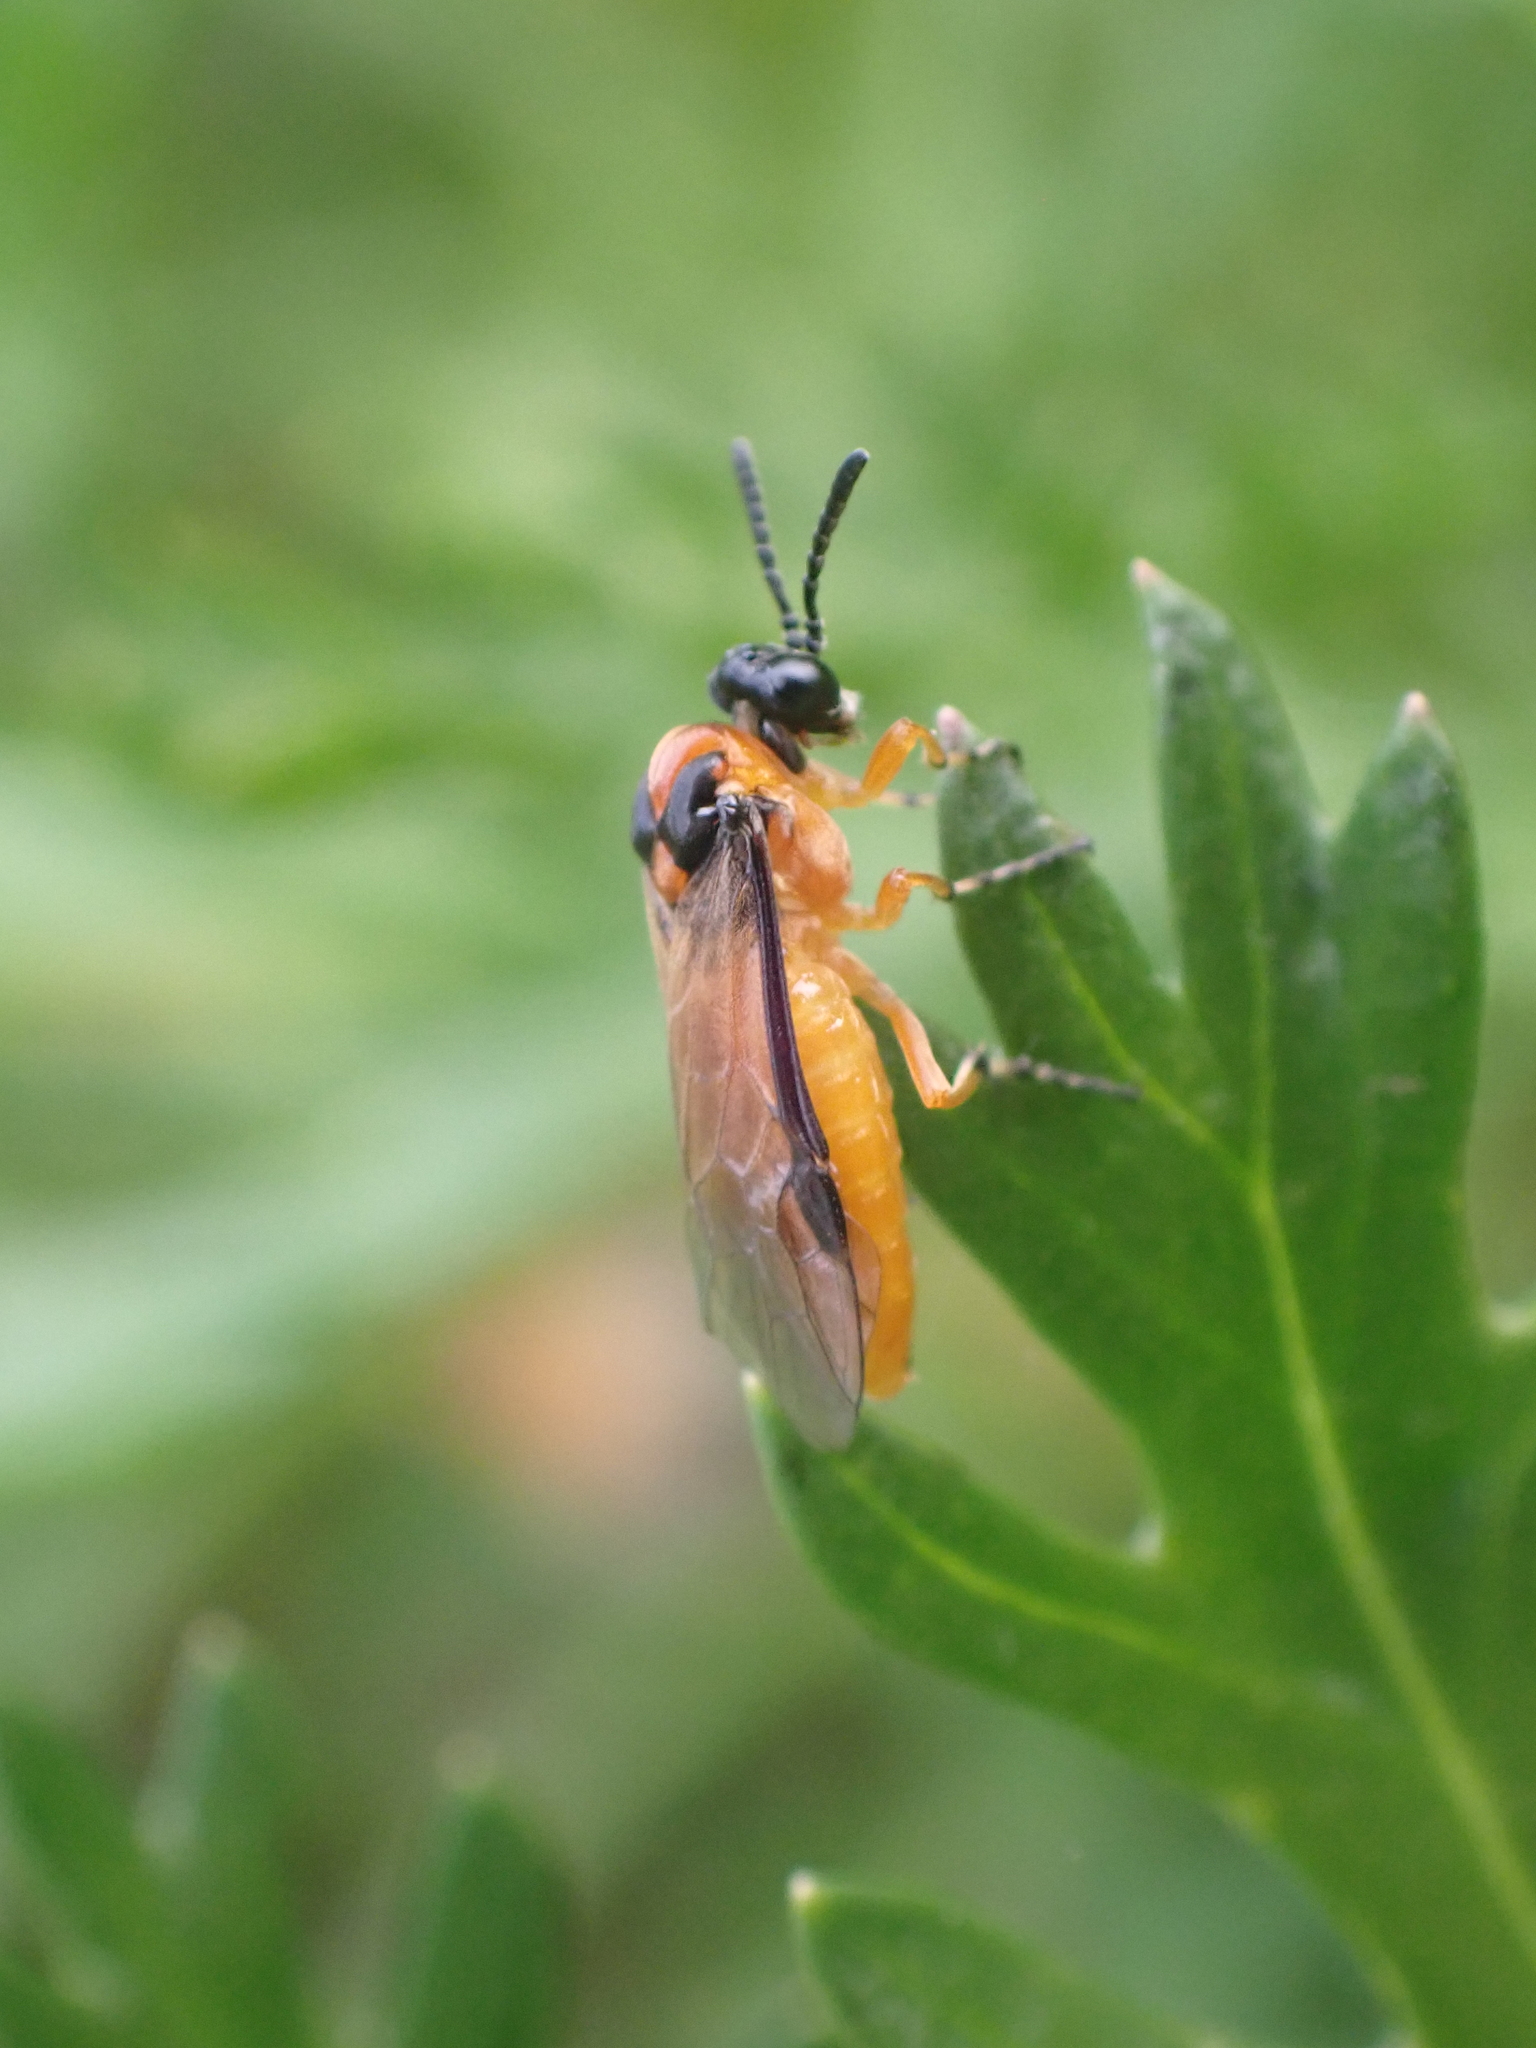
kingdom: Animalia
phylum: Arthropoda
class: Insecta
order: Hymenoptera
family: Tenthredinidae
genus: Athalia
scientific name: Athalia rosae
